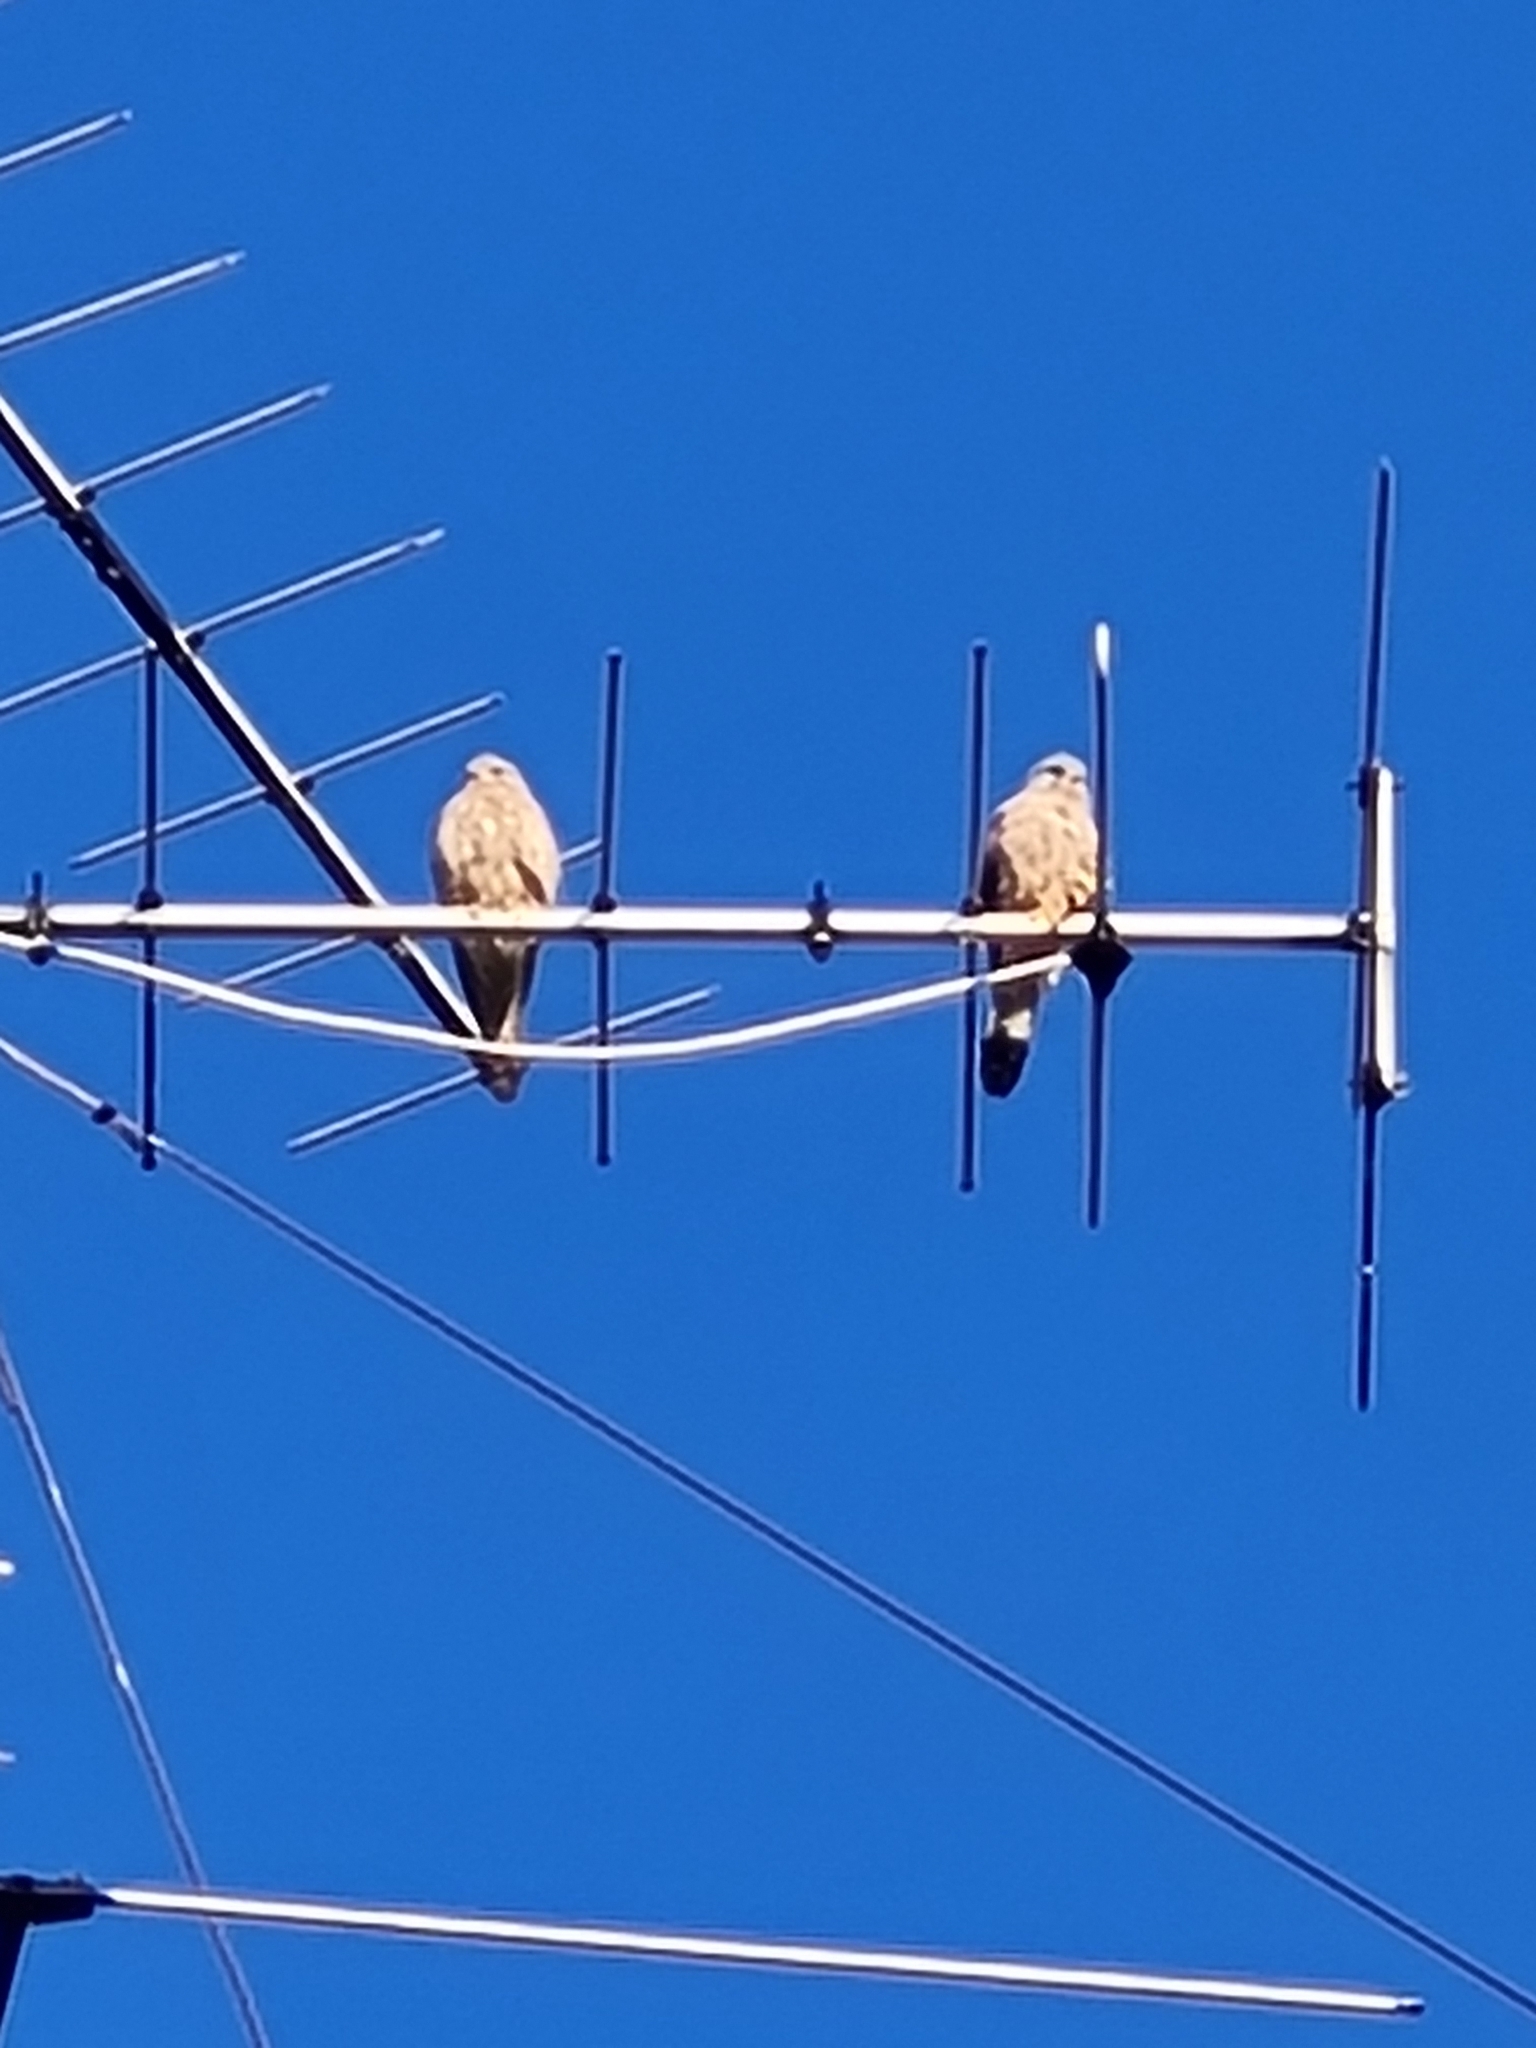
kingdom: Animalia
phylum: Chordata
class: Aves
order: Falconiformes
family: Falconidae
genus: Falco
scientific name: Falco tinnunculus
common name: Common kestrel
